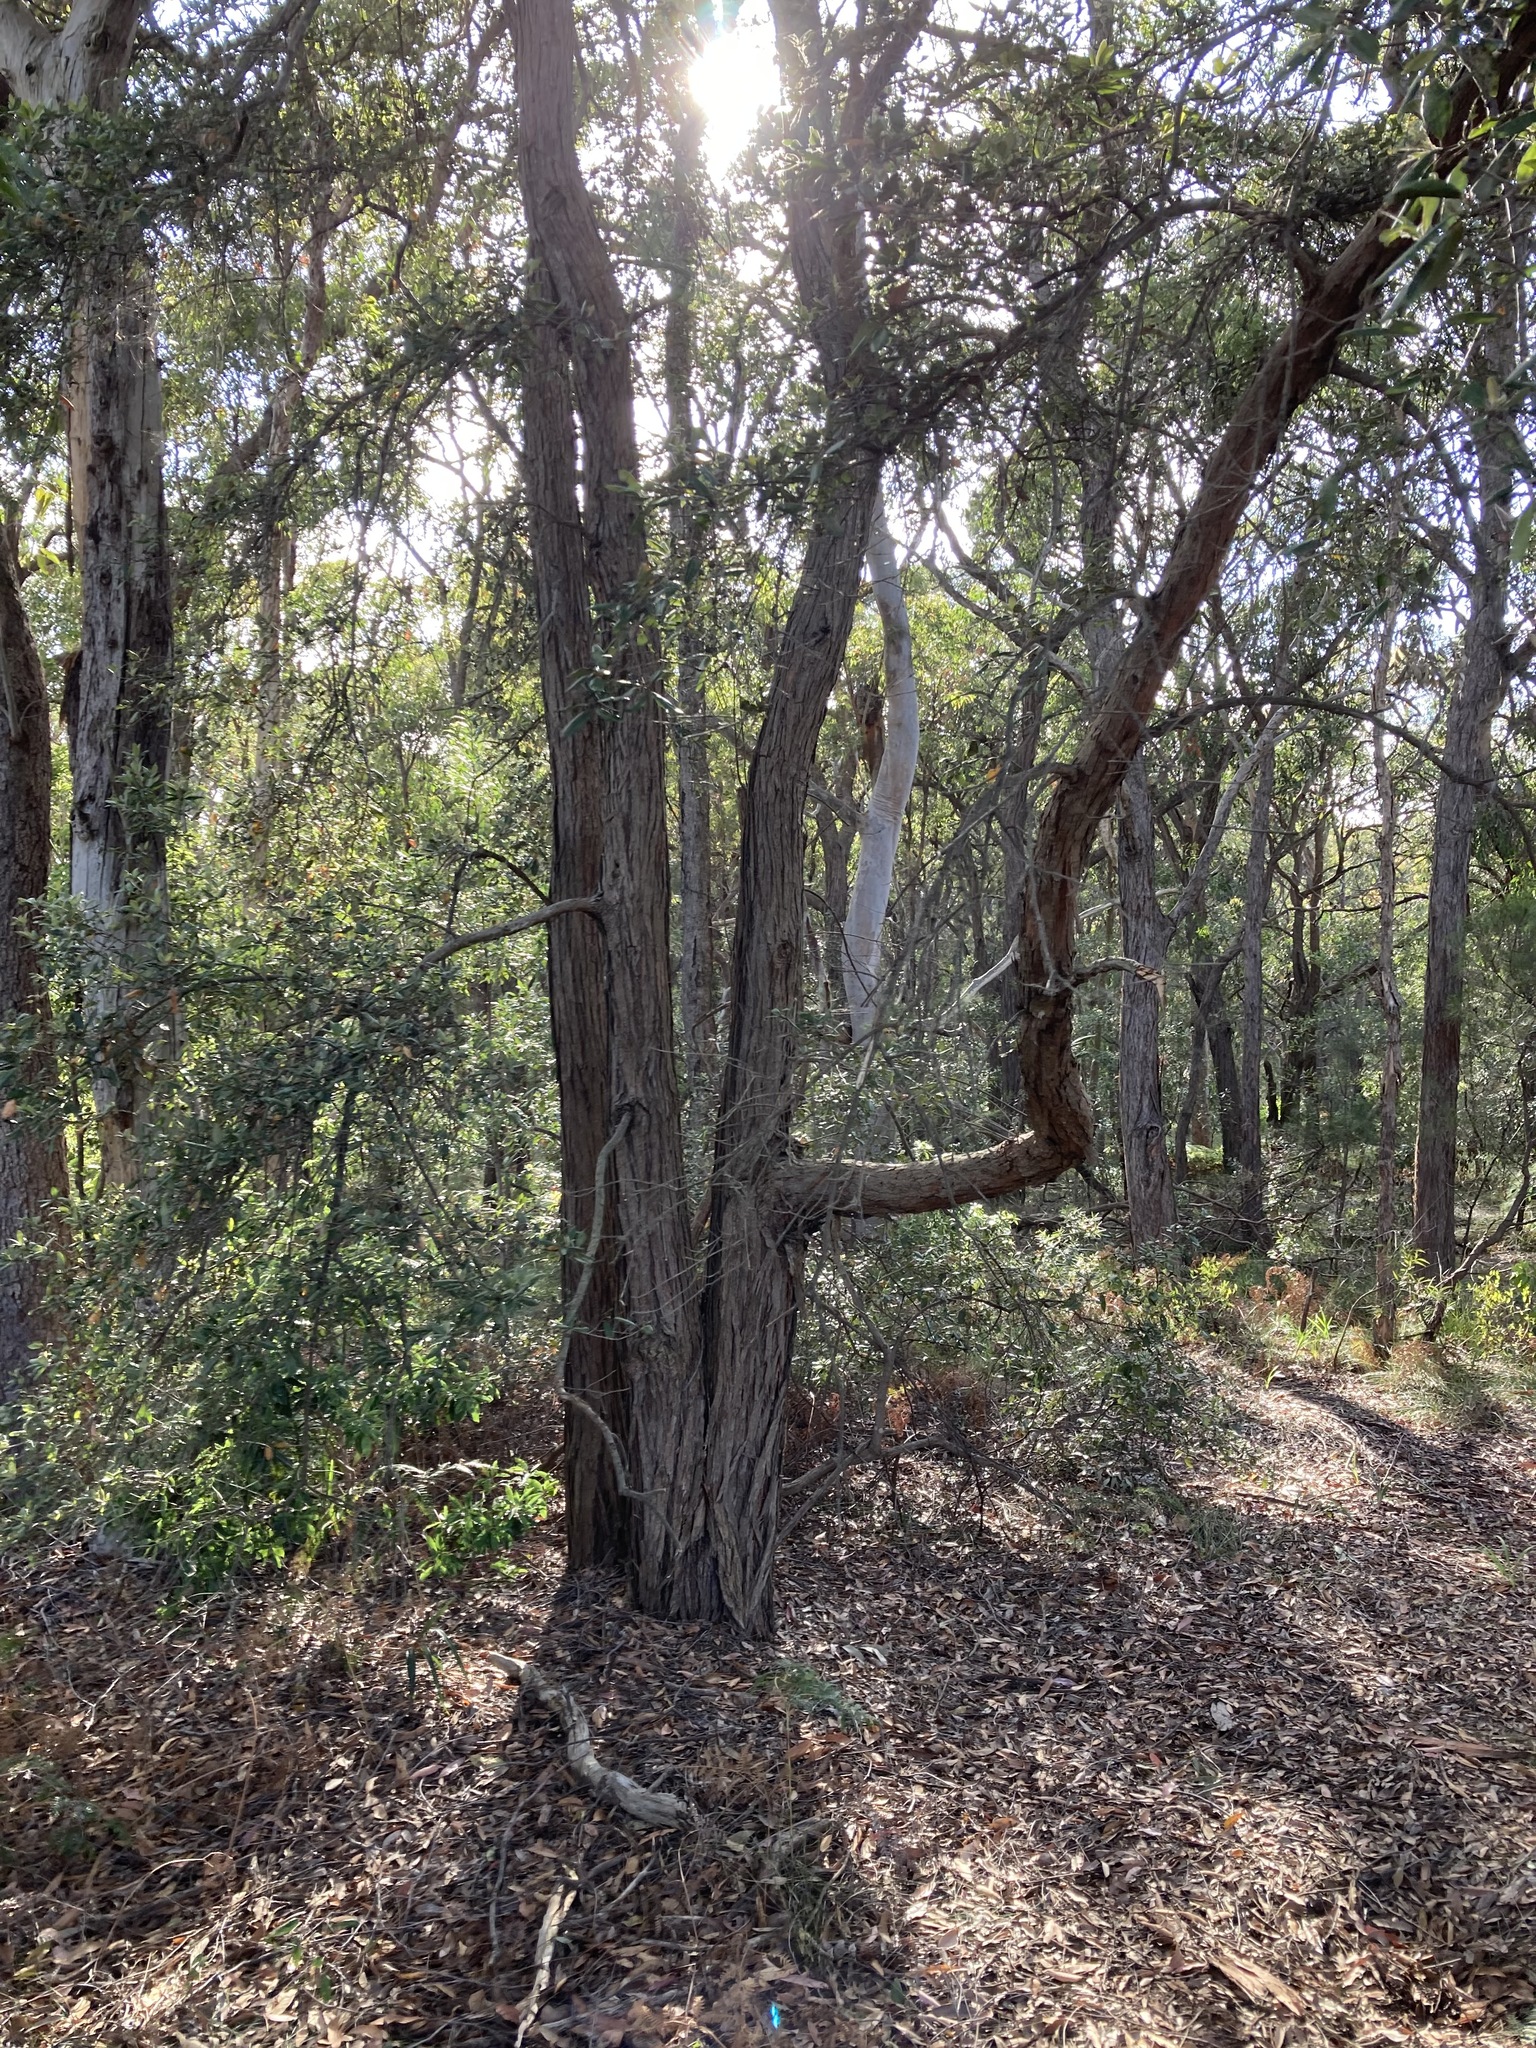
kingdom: Plantae
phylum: Tracheophyta
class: Magnoliopsida
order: Myrtales
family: Myrtaceae
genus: Syncarpia
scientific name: Syncarpia glomulifera
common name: Turpentine tree
